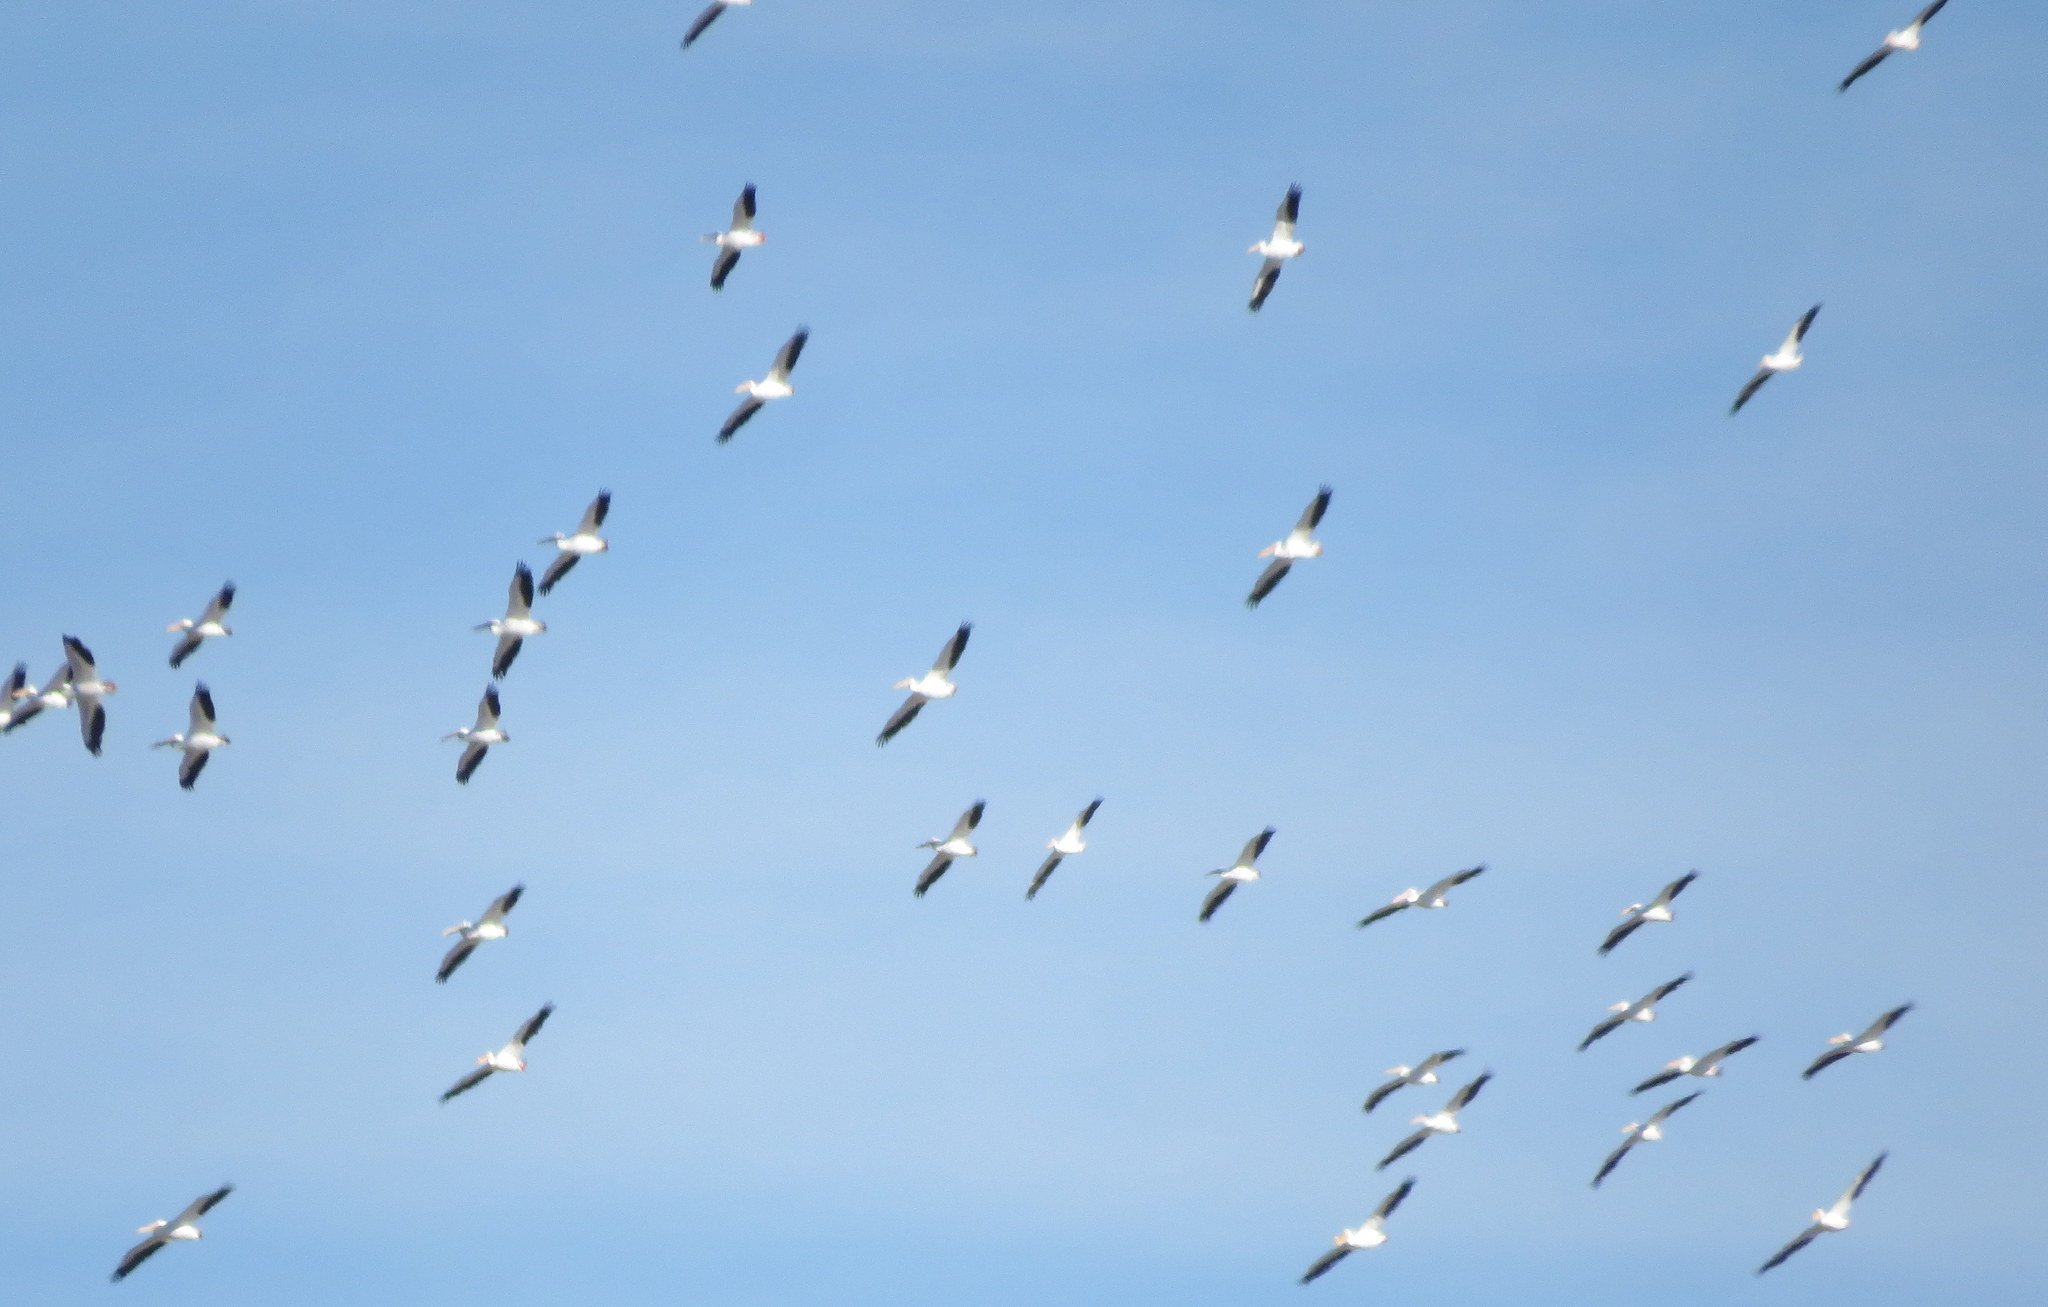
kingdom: Animalia
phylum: Chordata
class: Aves
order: Pelecaniformes
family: Pelecanidae
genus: Pelecanus
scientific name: Pelecanus erythrorhynchos
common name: American white pelican
